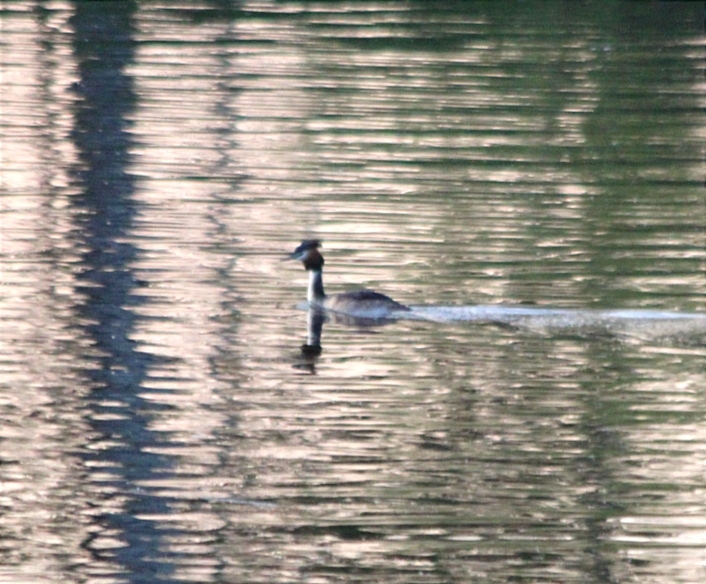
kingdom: Animalia
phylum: Chordata
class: Aves
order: Podicipediformes
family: Podicipedidae
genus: Podiceps
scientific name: Podiceps cristatus
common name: Great crested grebe
